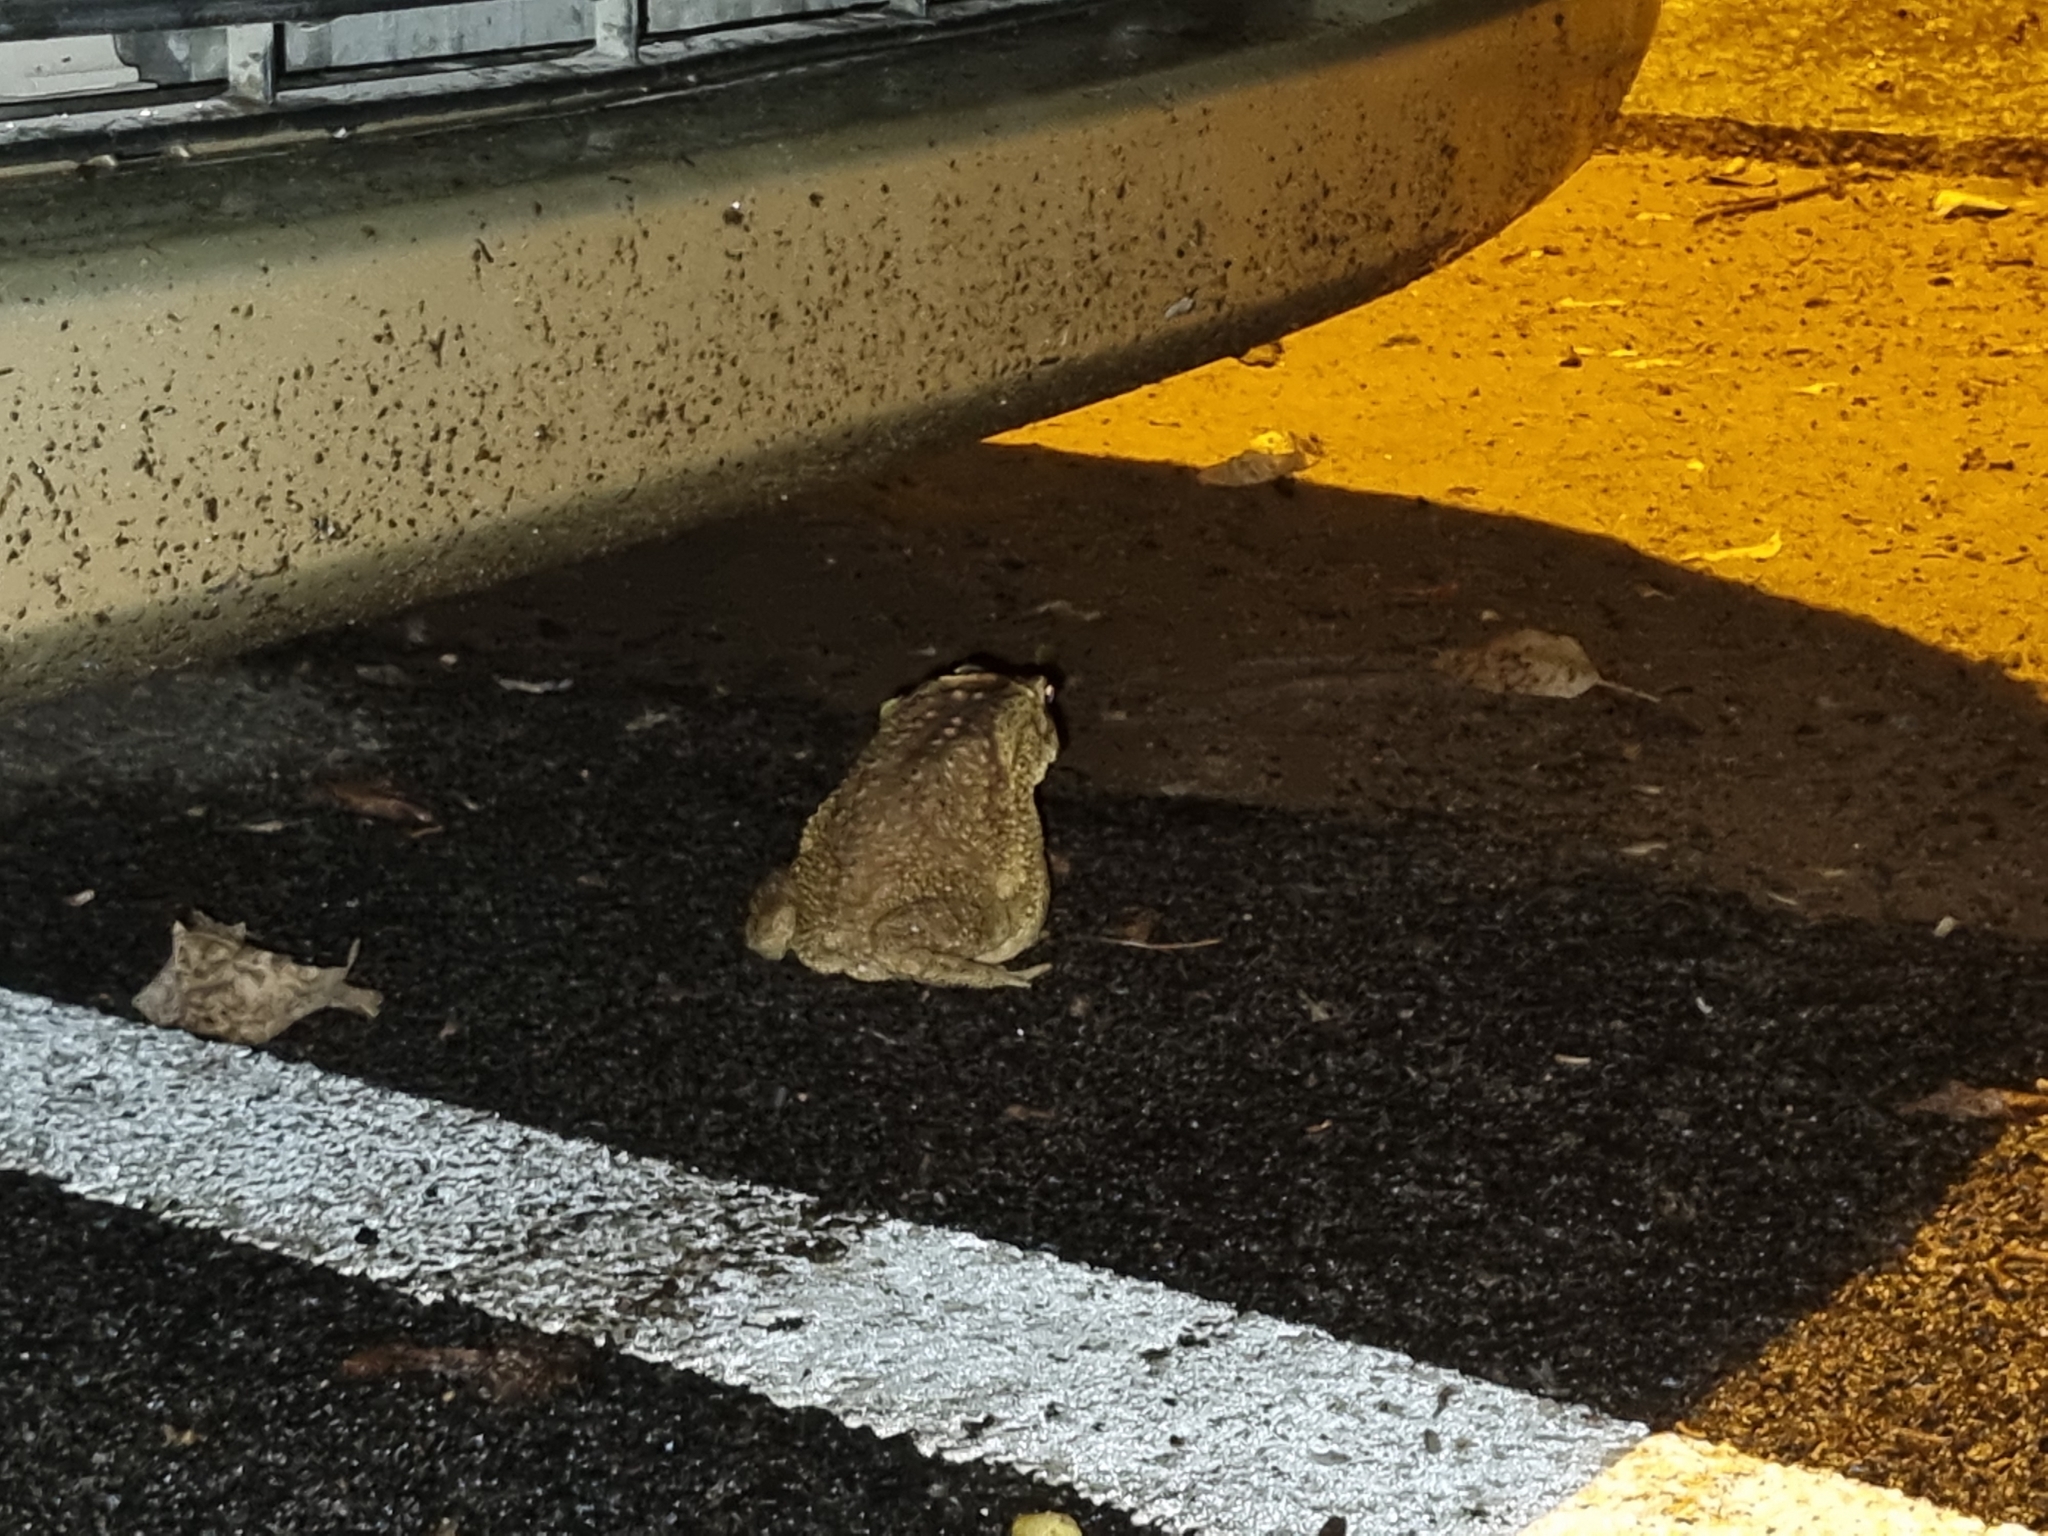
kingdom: Animalia
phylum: Chordata
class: Amphibia
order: Anura
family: Bufonidae
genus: Duttaphrynus
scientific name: Duttaphrynus melanostictus
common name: Common sunda toad
